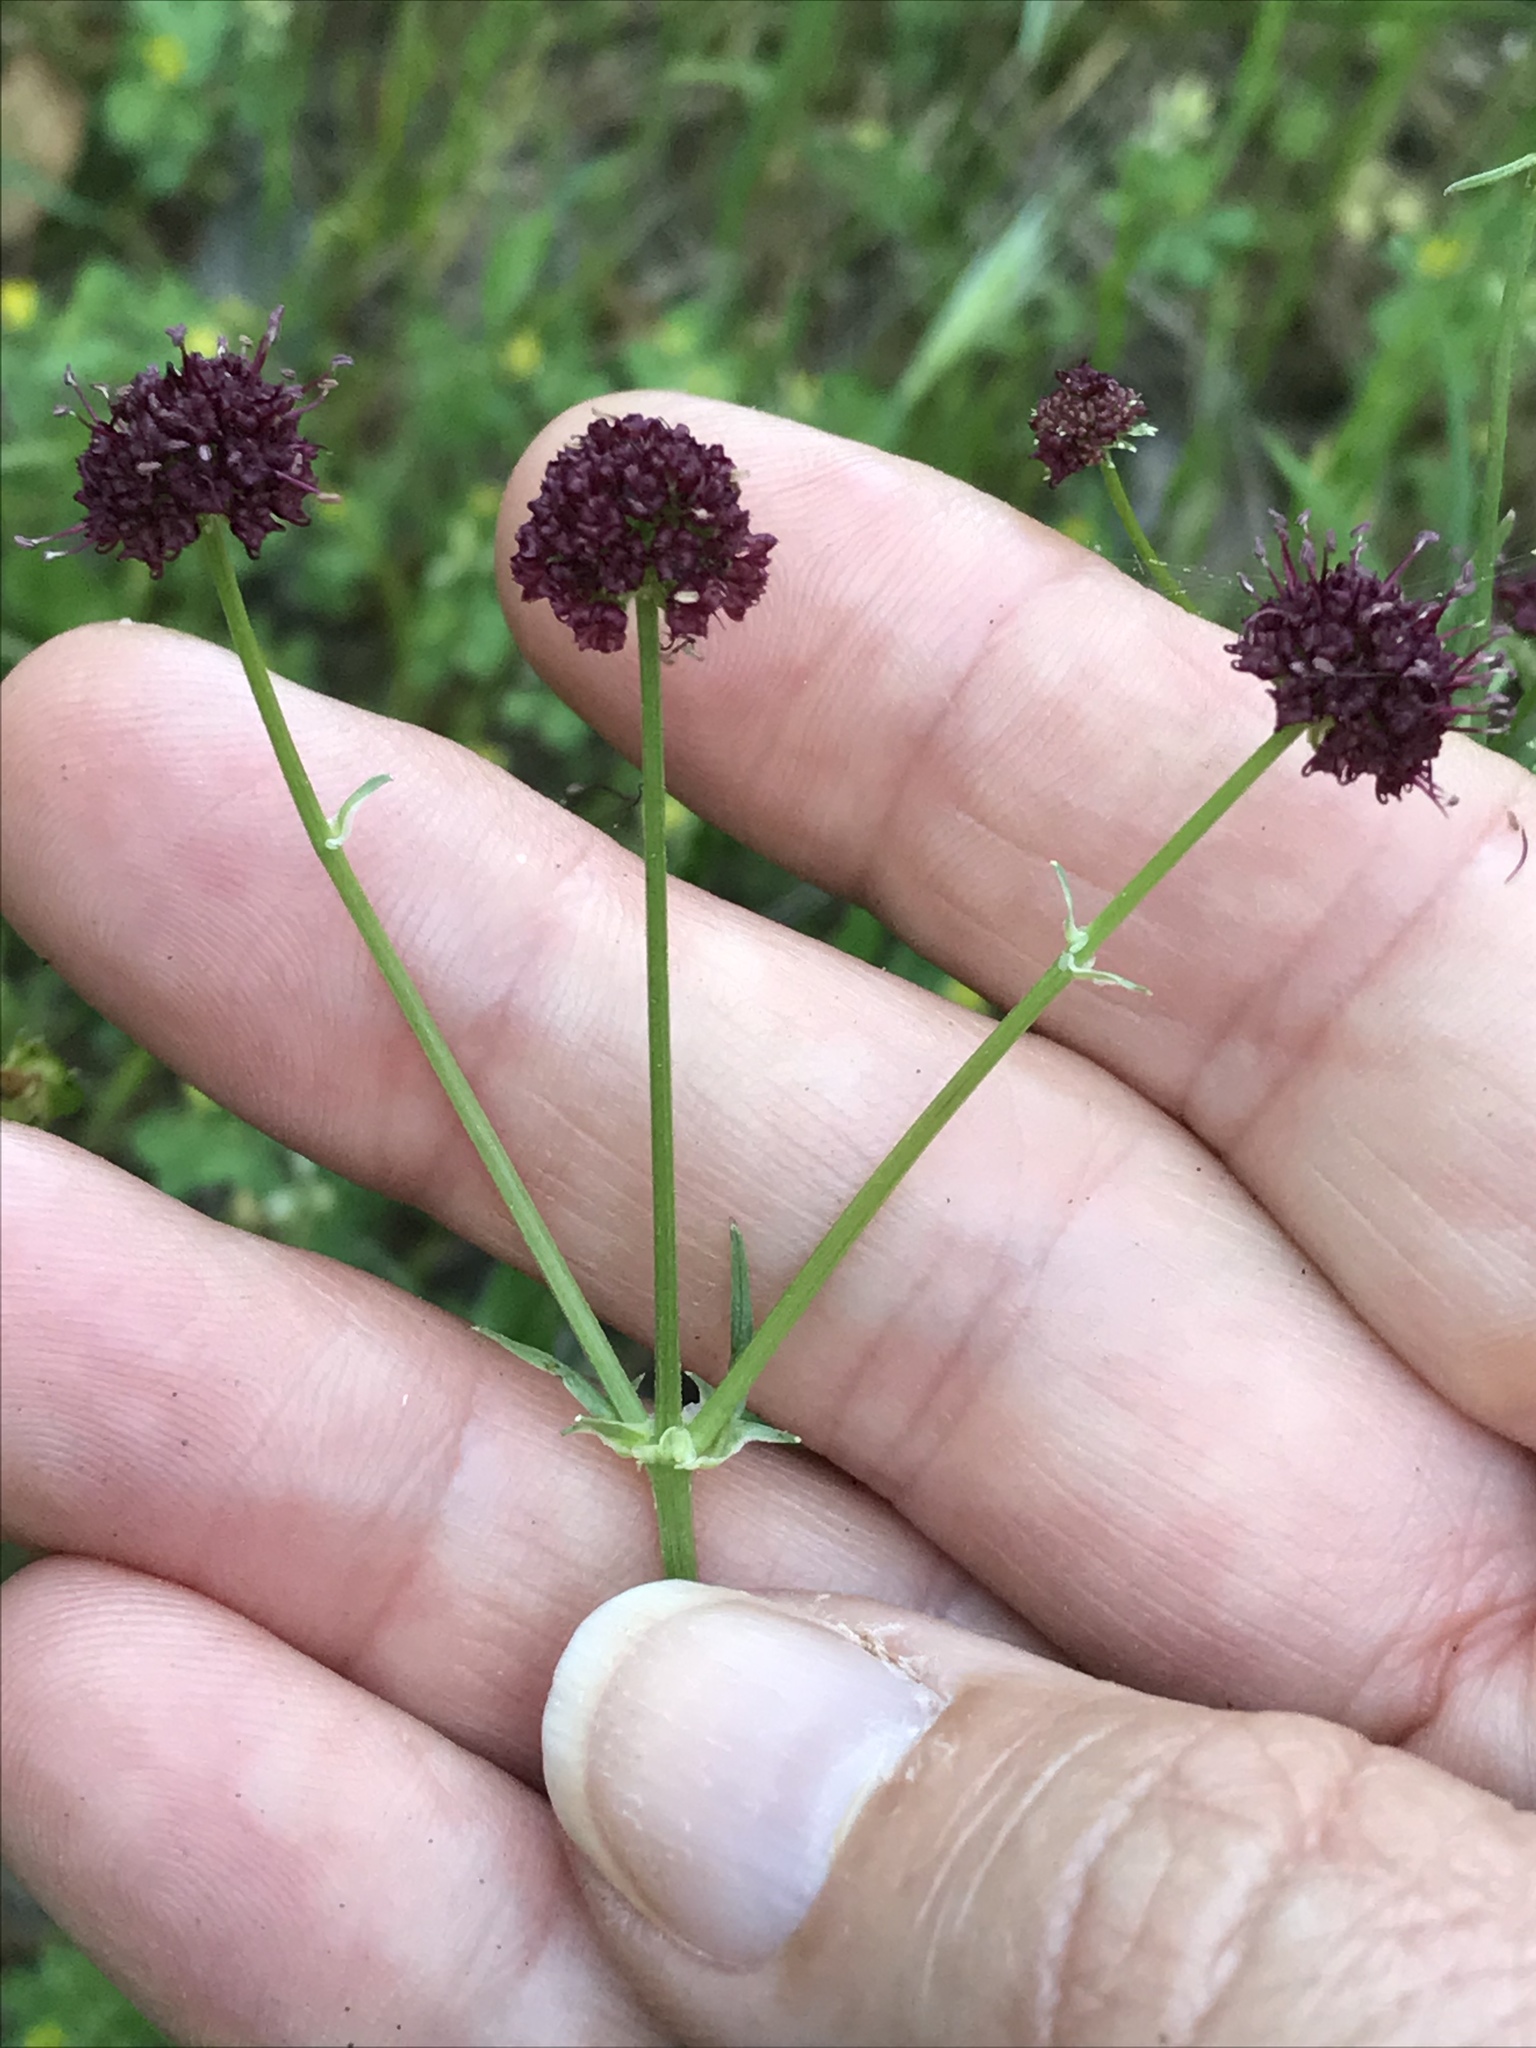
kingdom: Plantae
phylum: Tracheophyta
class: Magnoliopsida
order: Apiales
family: Apiaceae
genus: Sanicula
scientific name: Sanicula bipinnatifida
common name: Shoe-buttons
